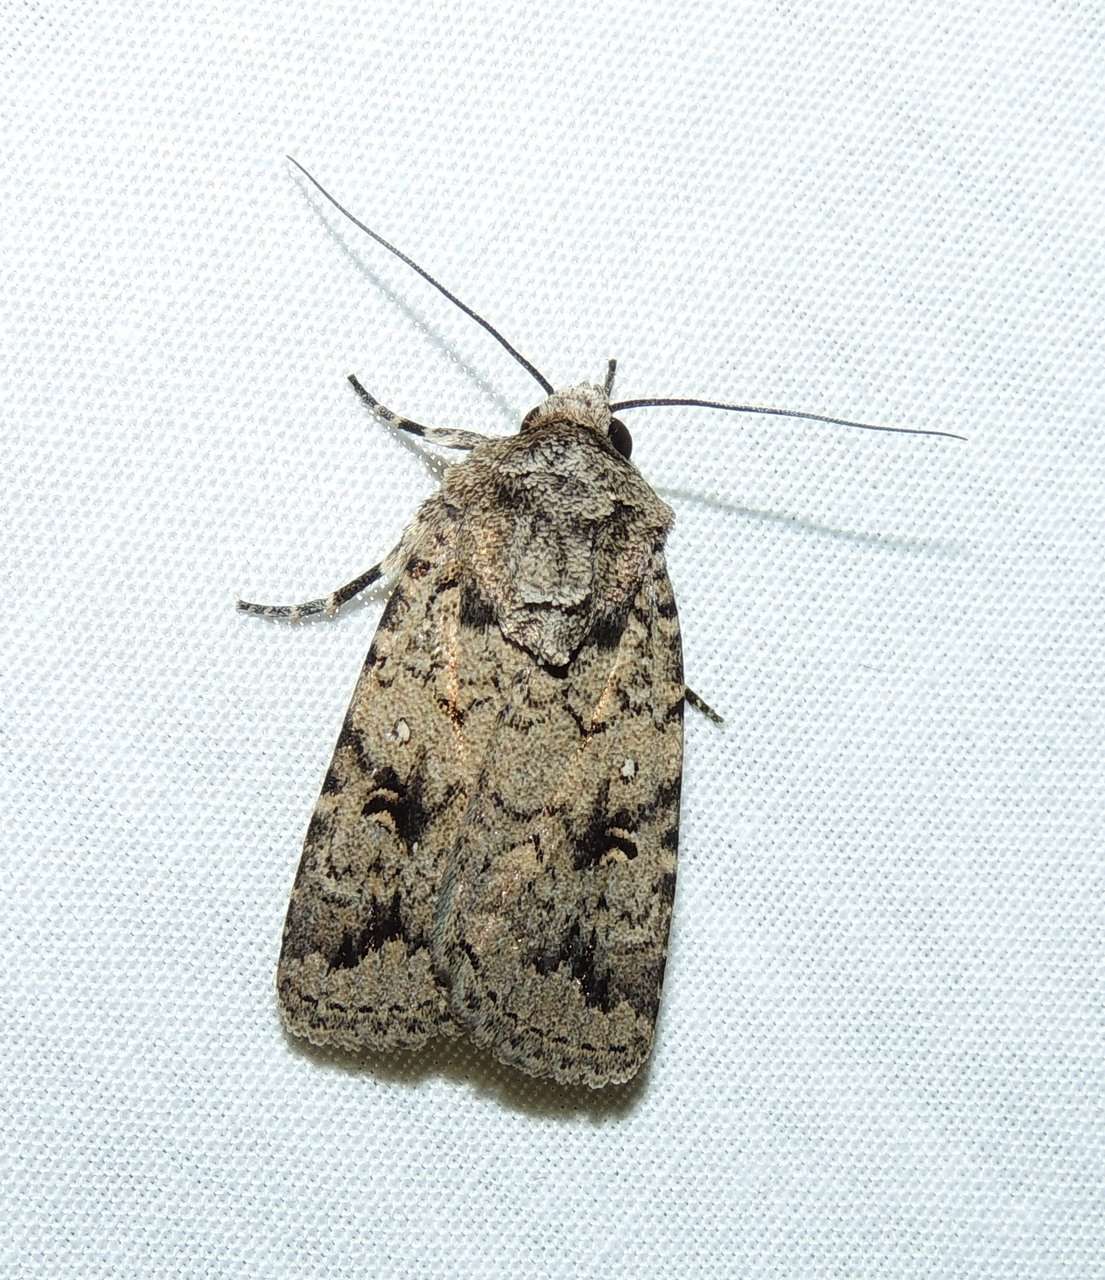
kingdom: Animalia
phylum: Arthropoda
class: Insecta
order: Lepidoptera
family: Noctuidae
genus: Proteuxoa
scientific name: Proteuxoa capularis
